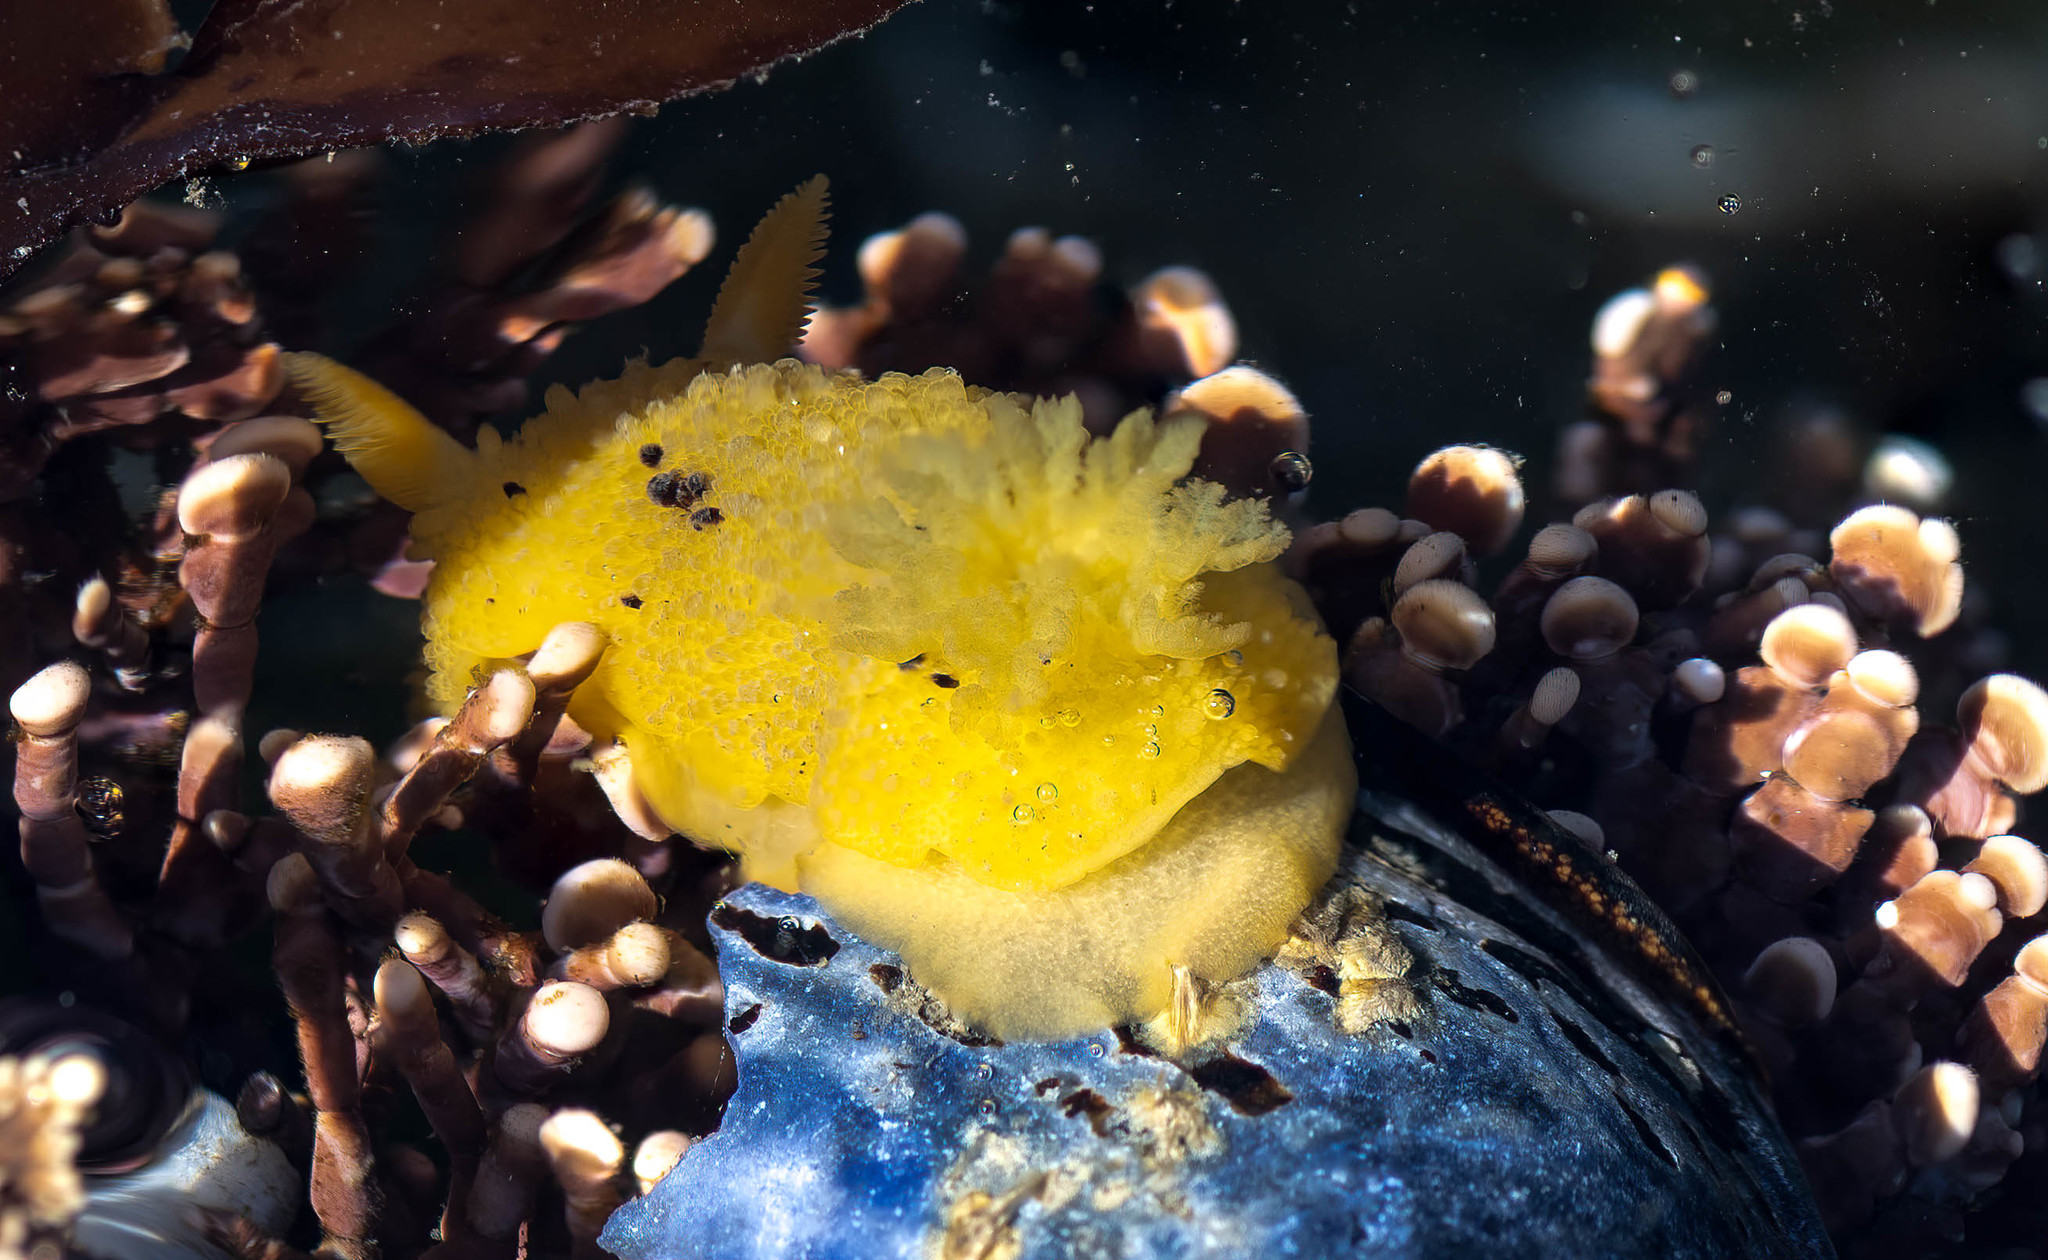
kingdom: Animalia
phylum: Mollusca
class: Gastropoda
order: Nudibranchia
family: Dorididae
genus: Doris
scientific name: Doris montereyensis
